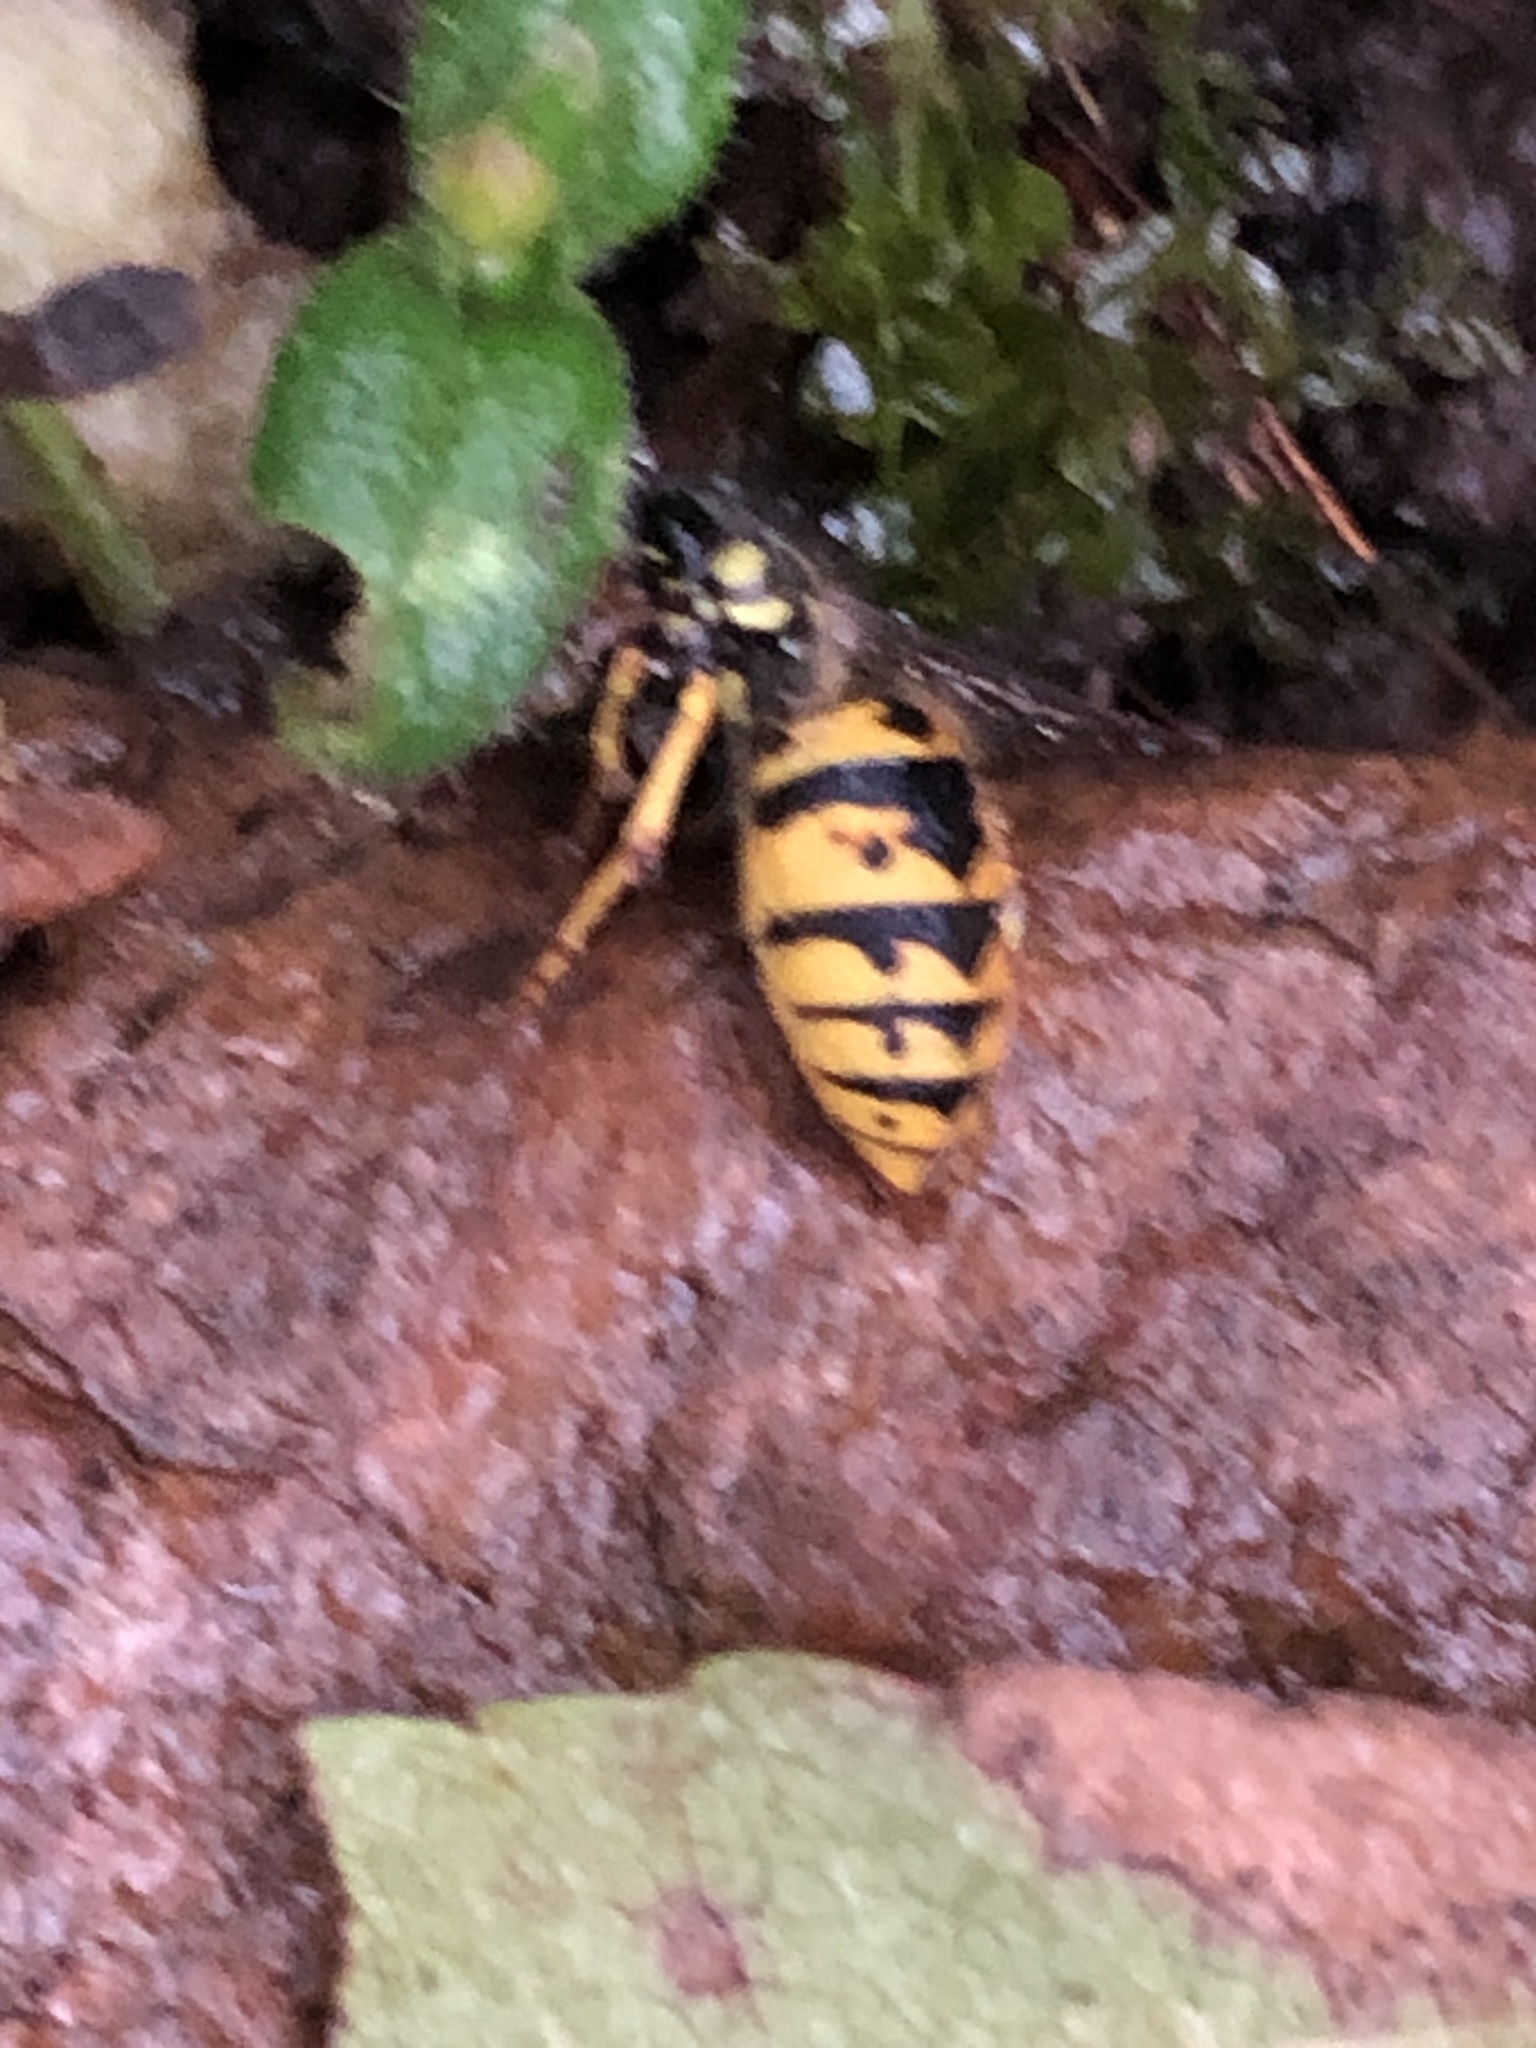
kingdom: Animalia
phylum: Arthropoda
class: Insecta
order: Hymenoptera
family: Vespidae
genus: Vespula
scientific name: Vespula germanica
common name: German wasp
